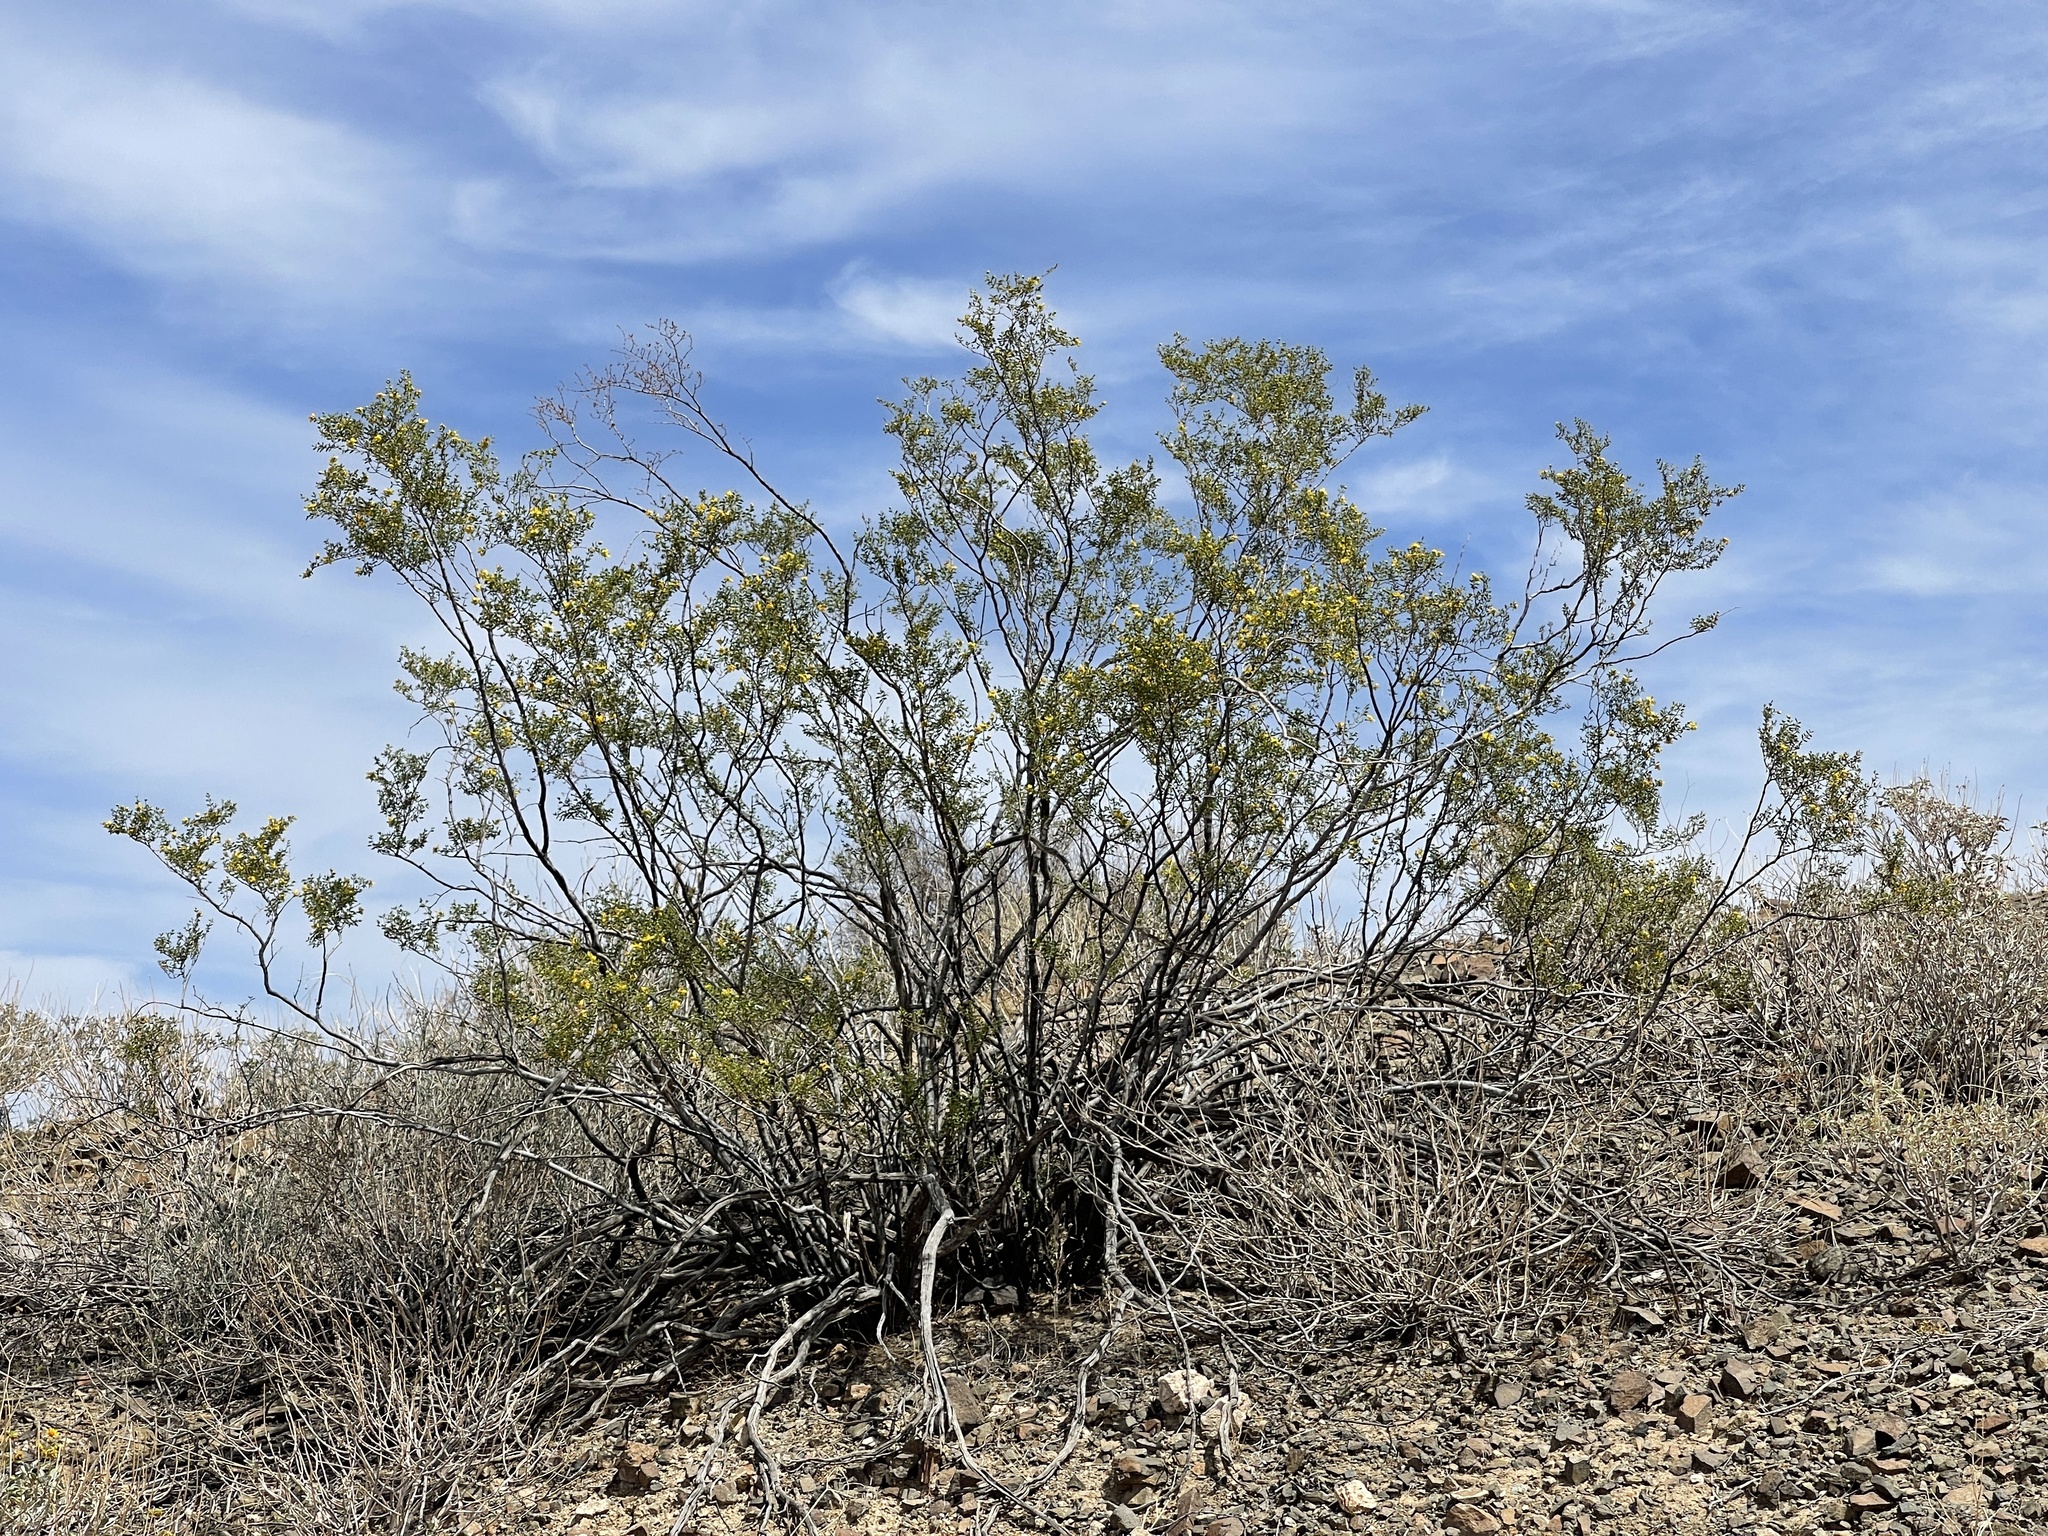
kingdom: Plantae
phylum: Tracheophyta
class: Magnoliopsida
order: Zygophyllales
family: Zygophyllaceae
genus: Larrea
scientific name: Larrea tridentata
